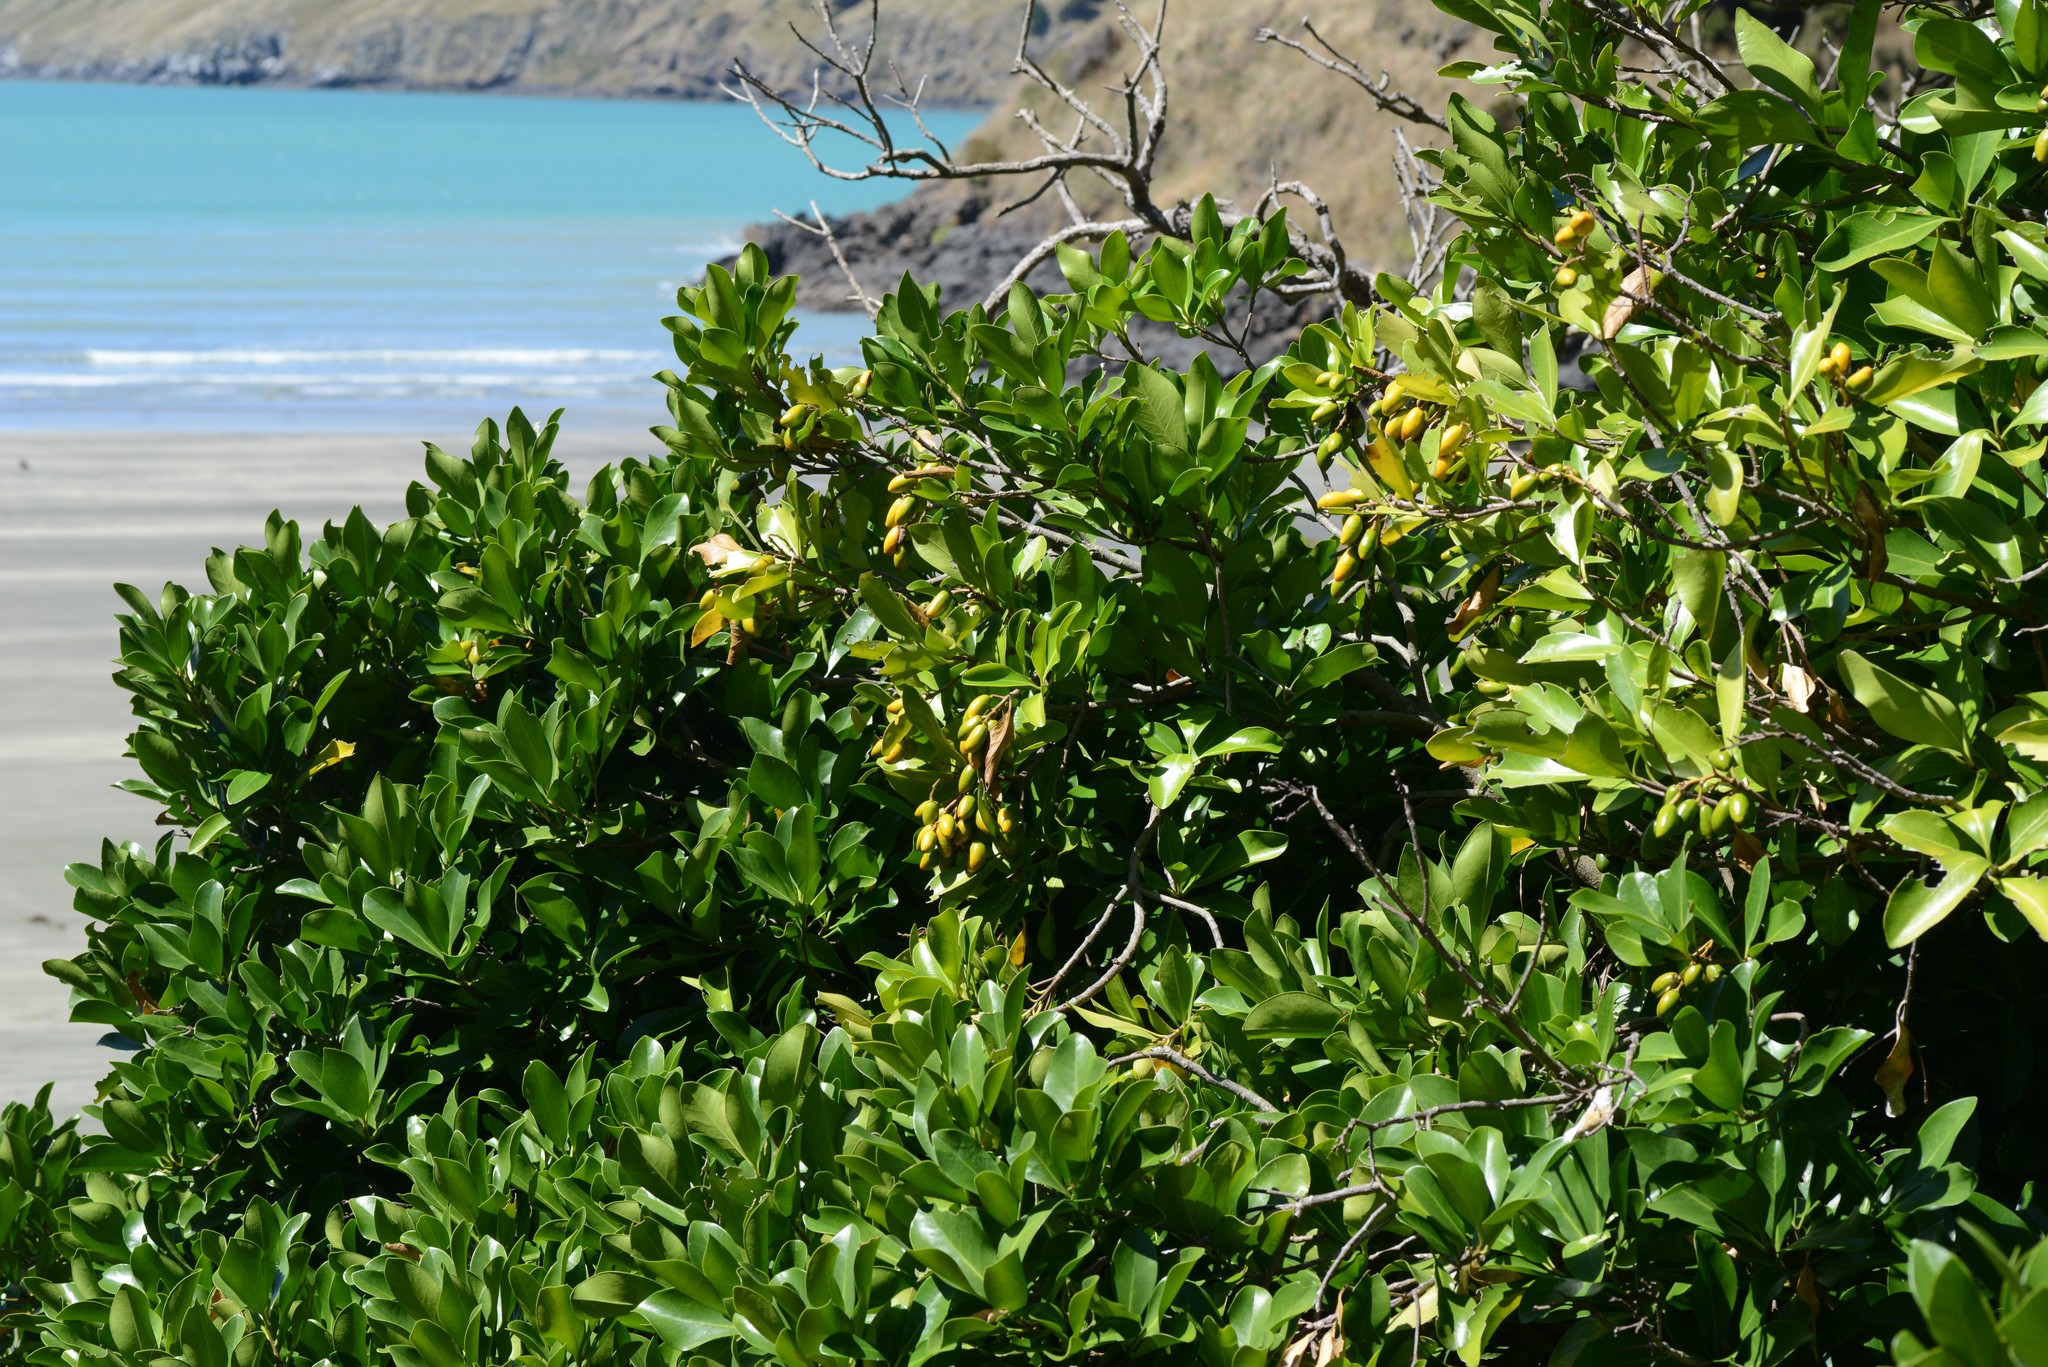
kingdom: Plantae
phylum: Tracheophyta
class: Magnoliopsida
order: Cucurbitales
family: Corynocarpaceae
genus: Corynocarpus
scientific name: Corynocarpus laevigatus
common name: New zealand laurel
